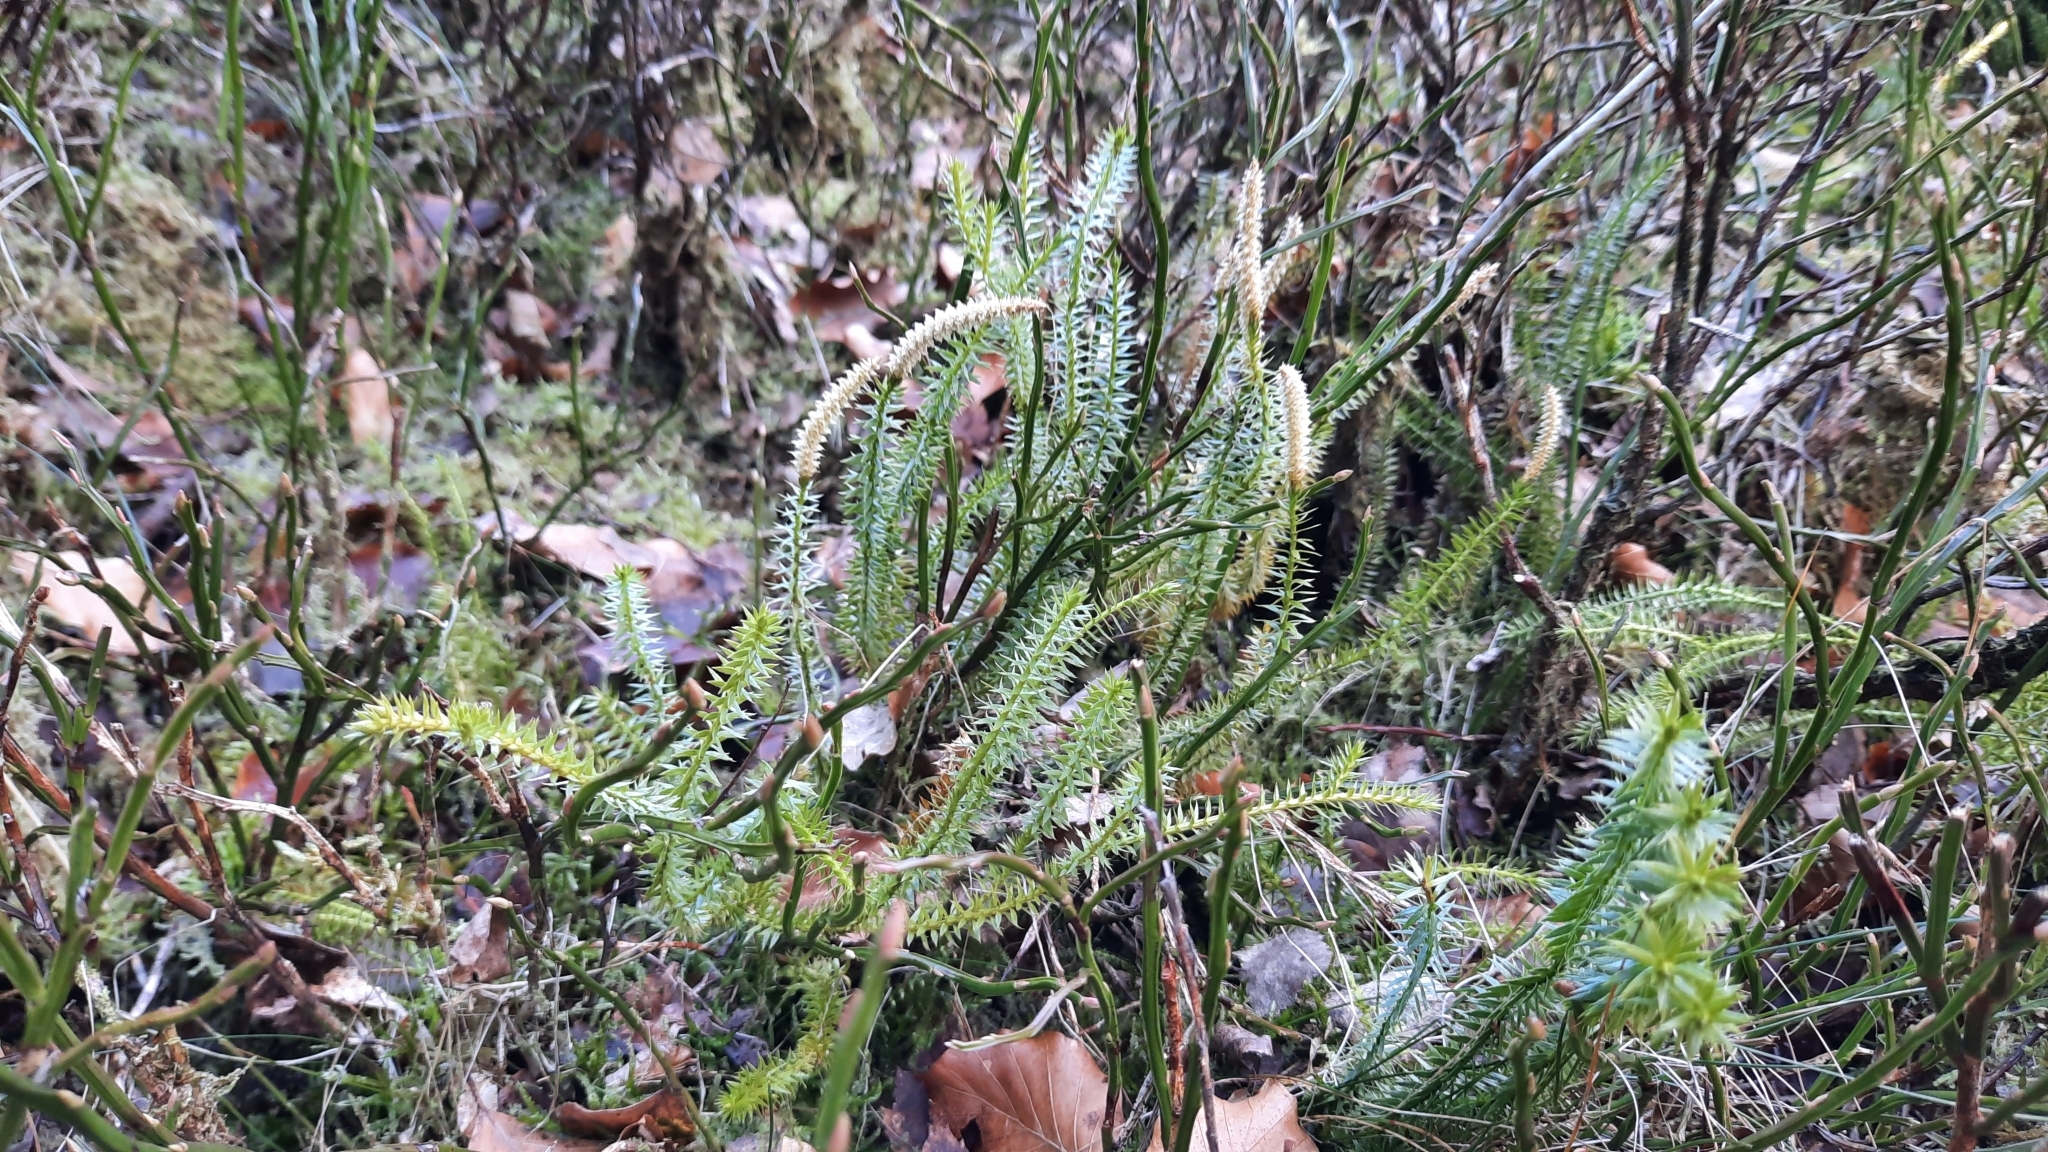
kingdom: Plantae
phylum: Tracheophyta
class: Lycopodiopsida
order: Lycopodiales
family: Lycopodiaceae
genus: Spinulum
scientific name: Spinulum annotinum
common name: Interrupted club-moss
